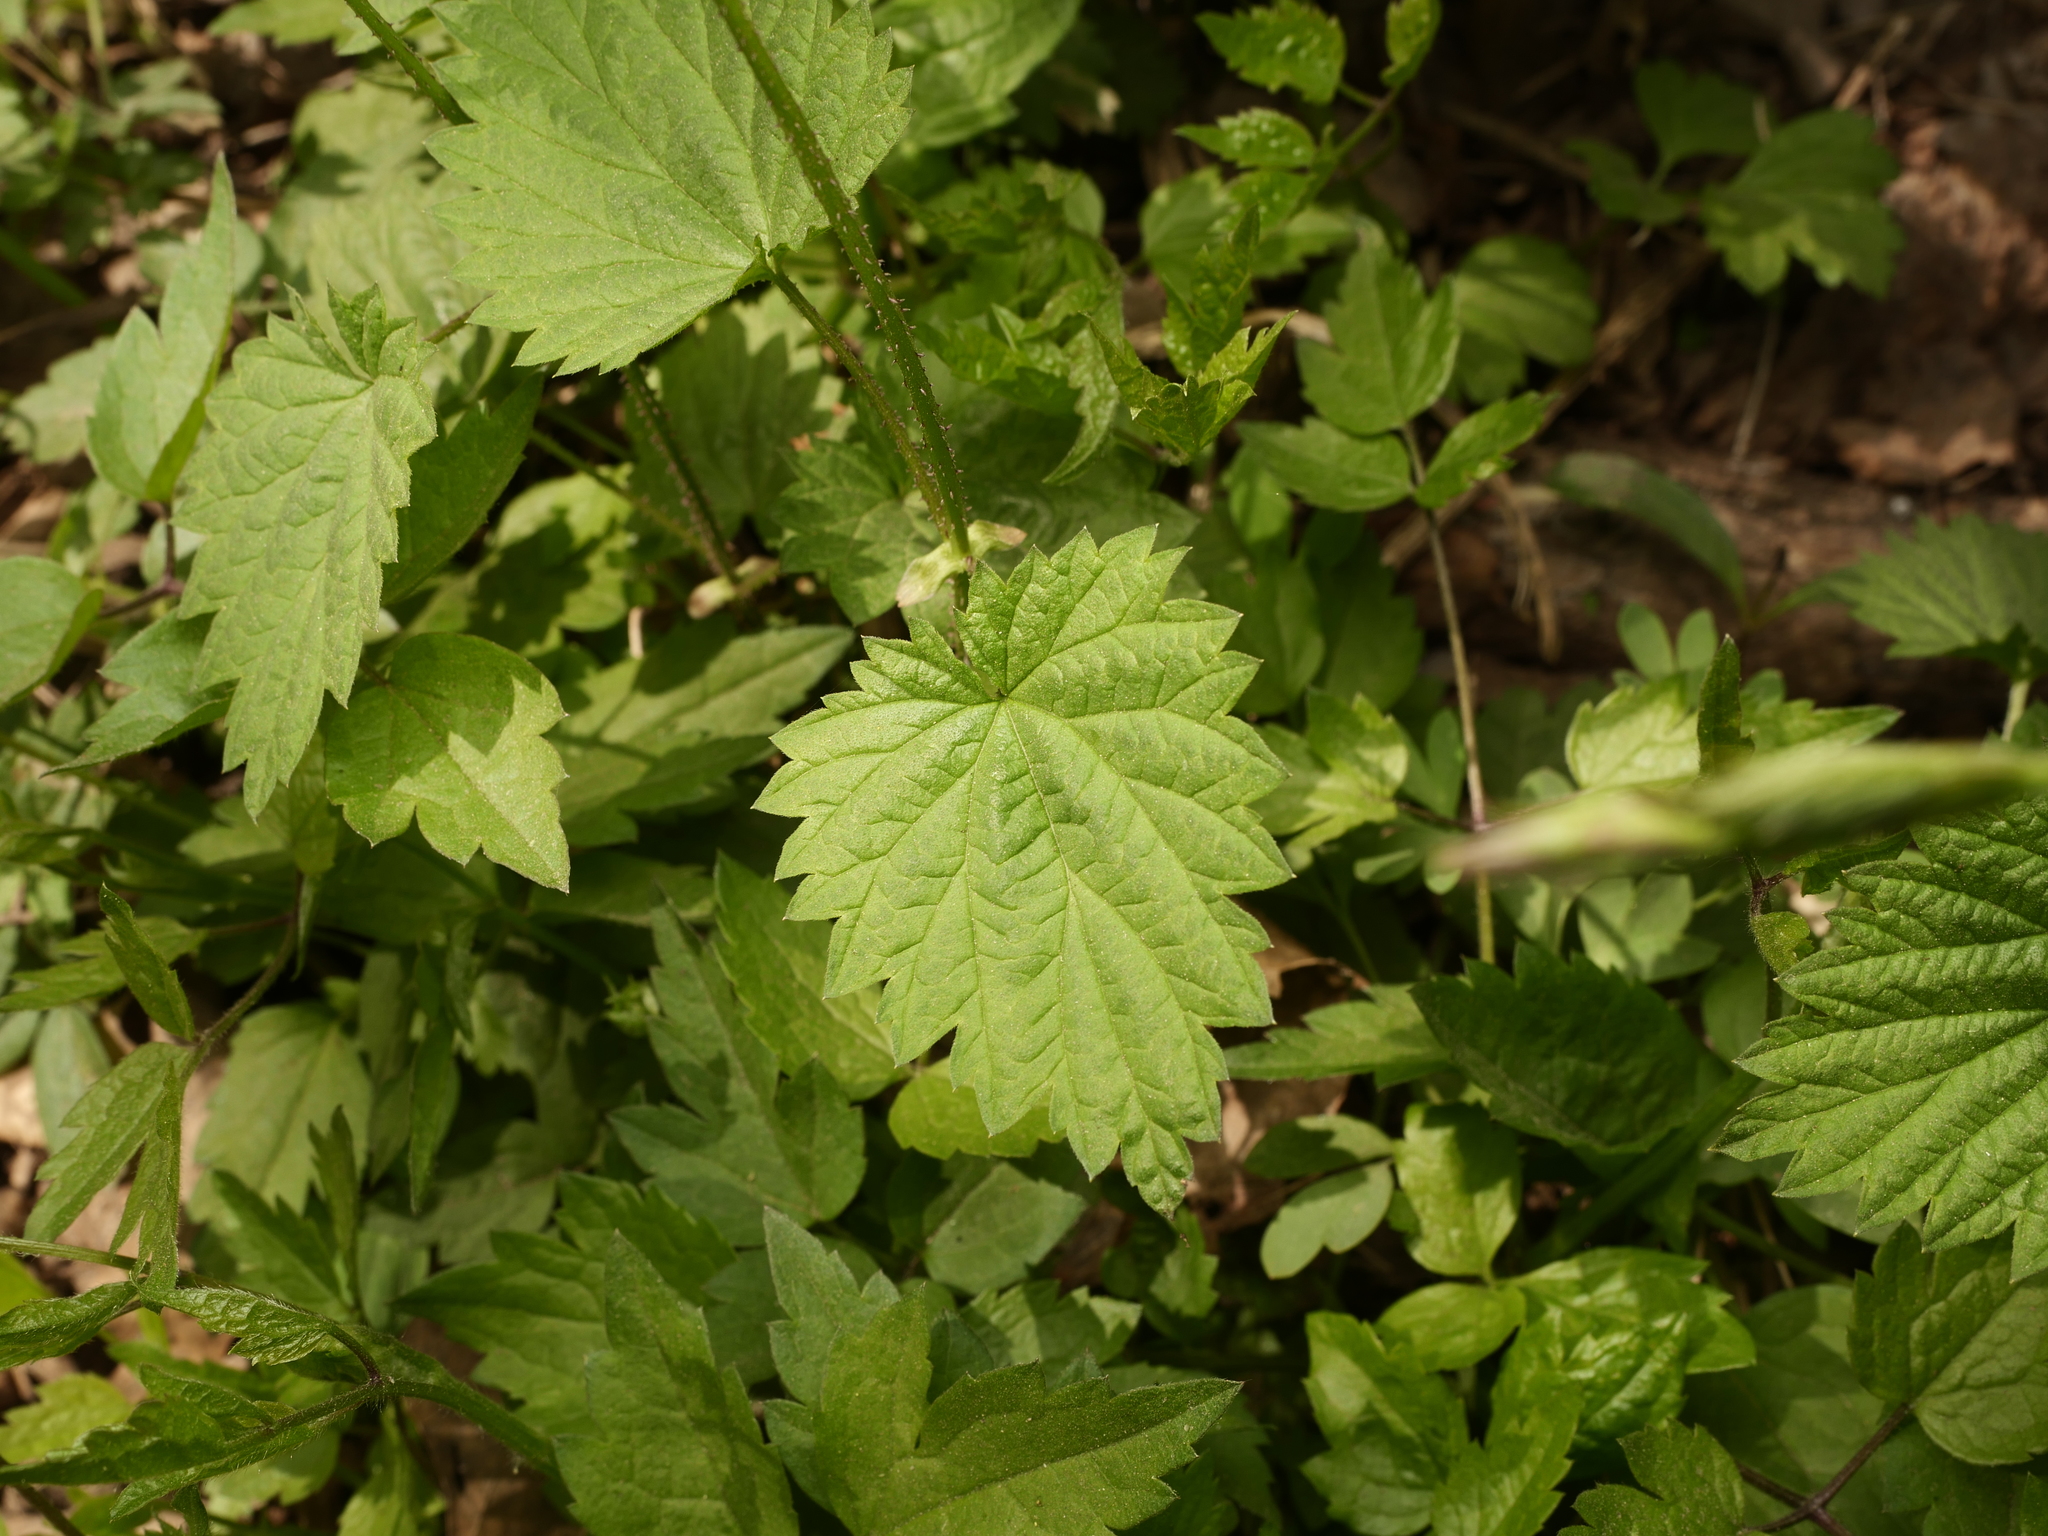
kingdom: Plantae
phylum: Tracheophyta
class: Magnoliopsida
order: Rosales
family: Urticaceae
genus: Urtica
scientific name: Urtica dioica
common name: Common nettle
